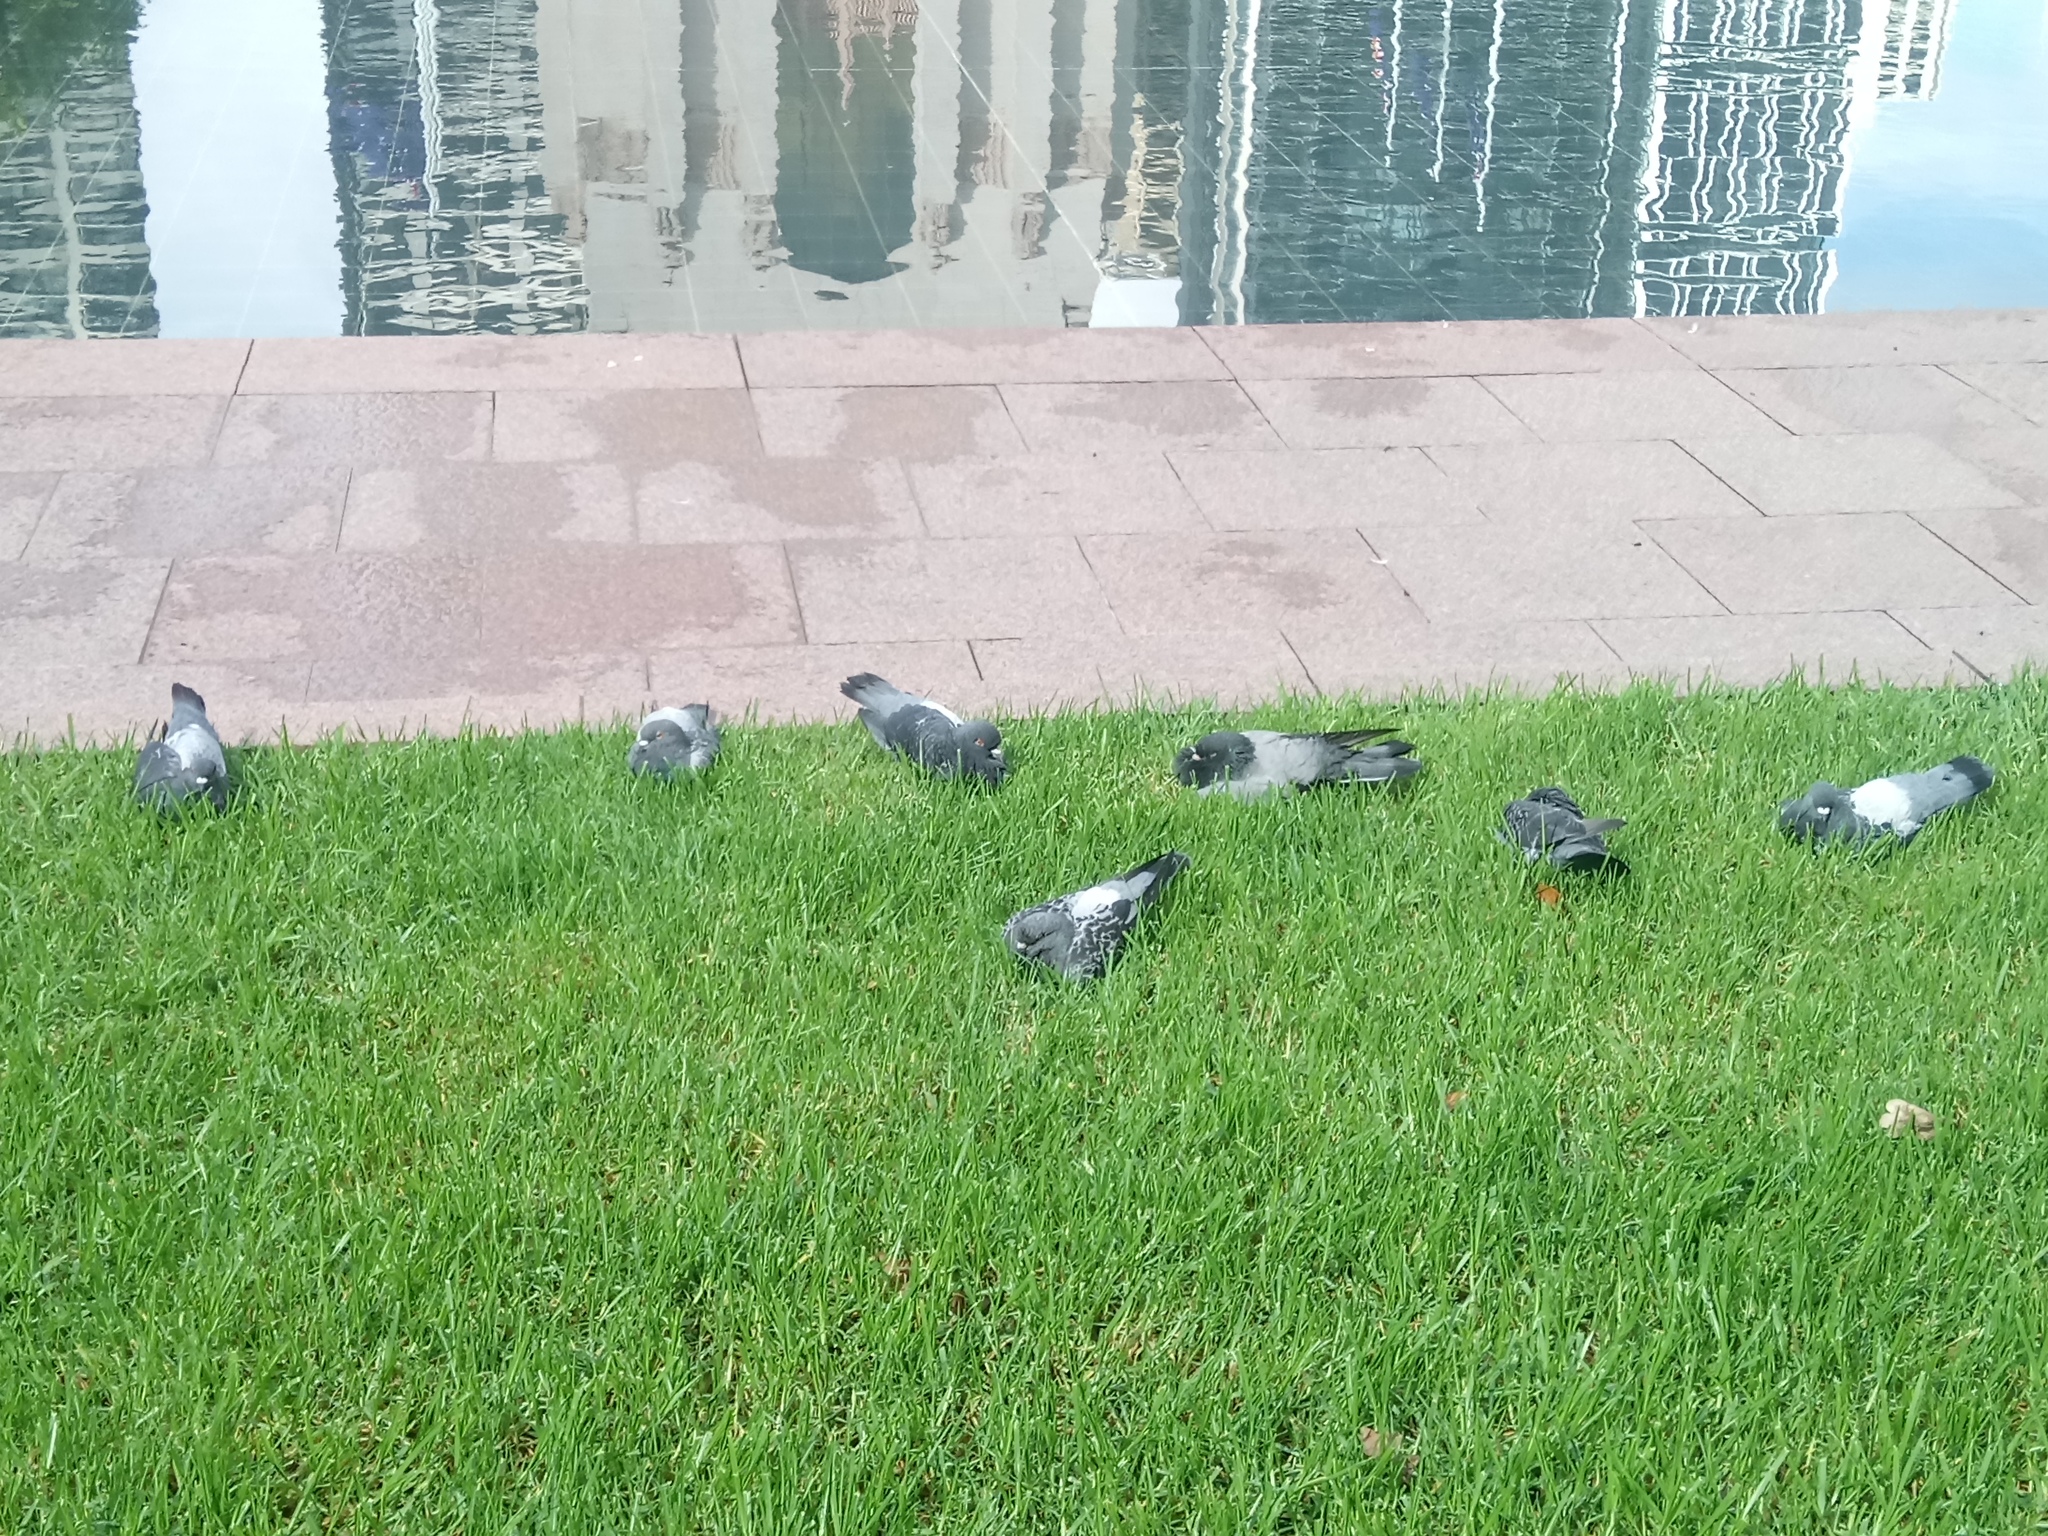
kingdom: Animalia
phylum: Chordata
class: Aves
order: Columbiformes
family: Columbidae
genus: Columba
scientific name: Columba livia
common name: Rock pigeon
